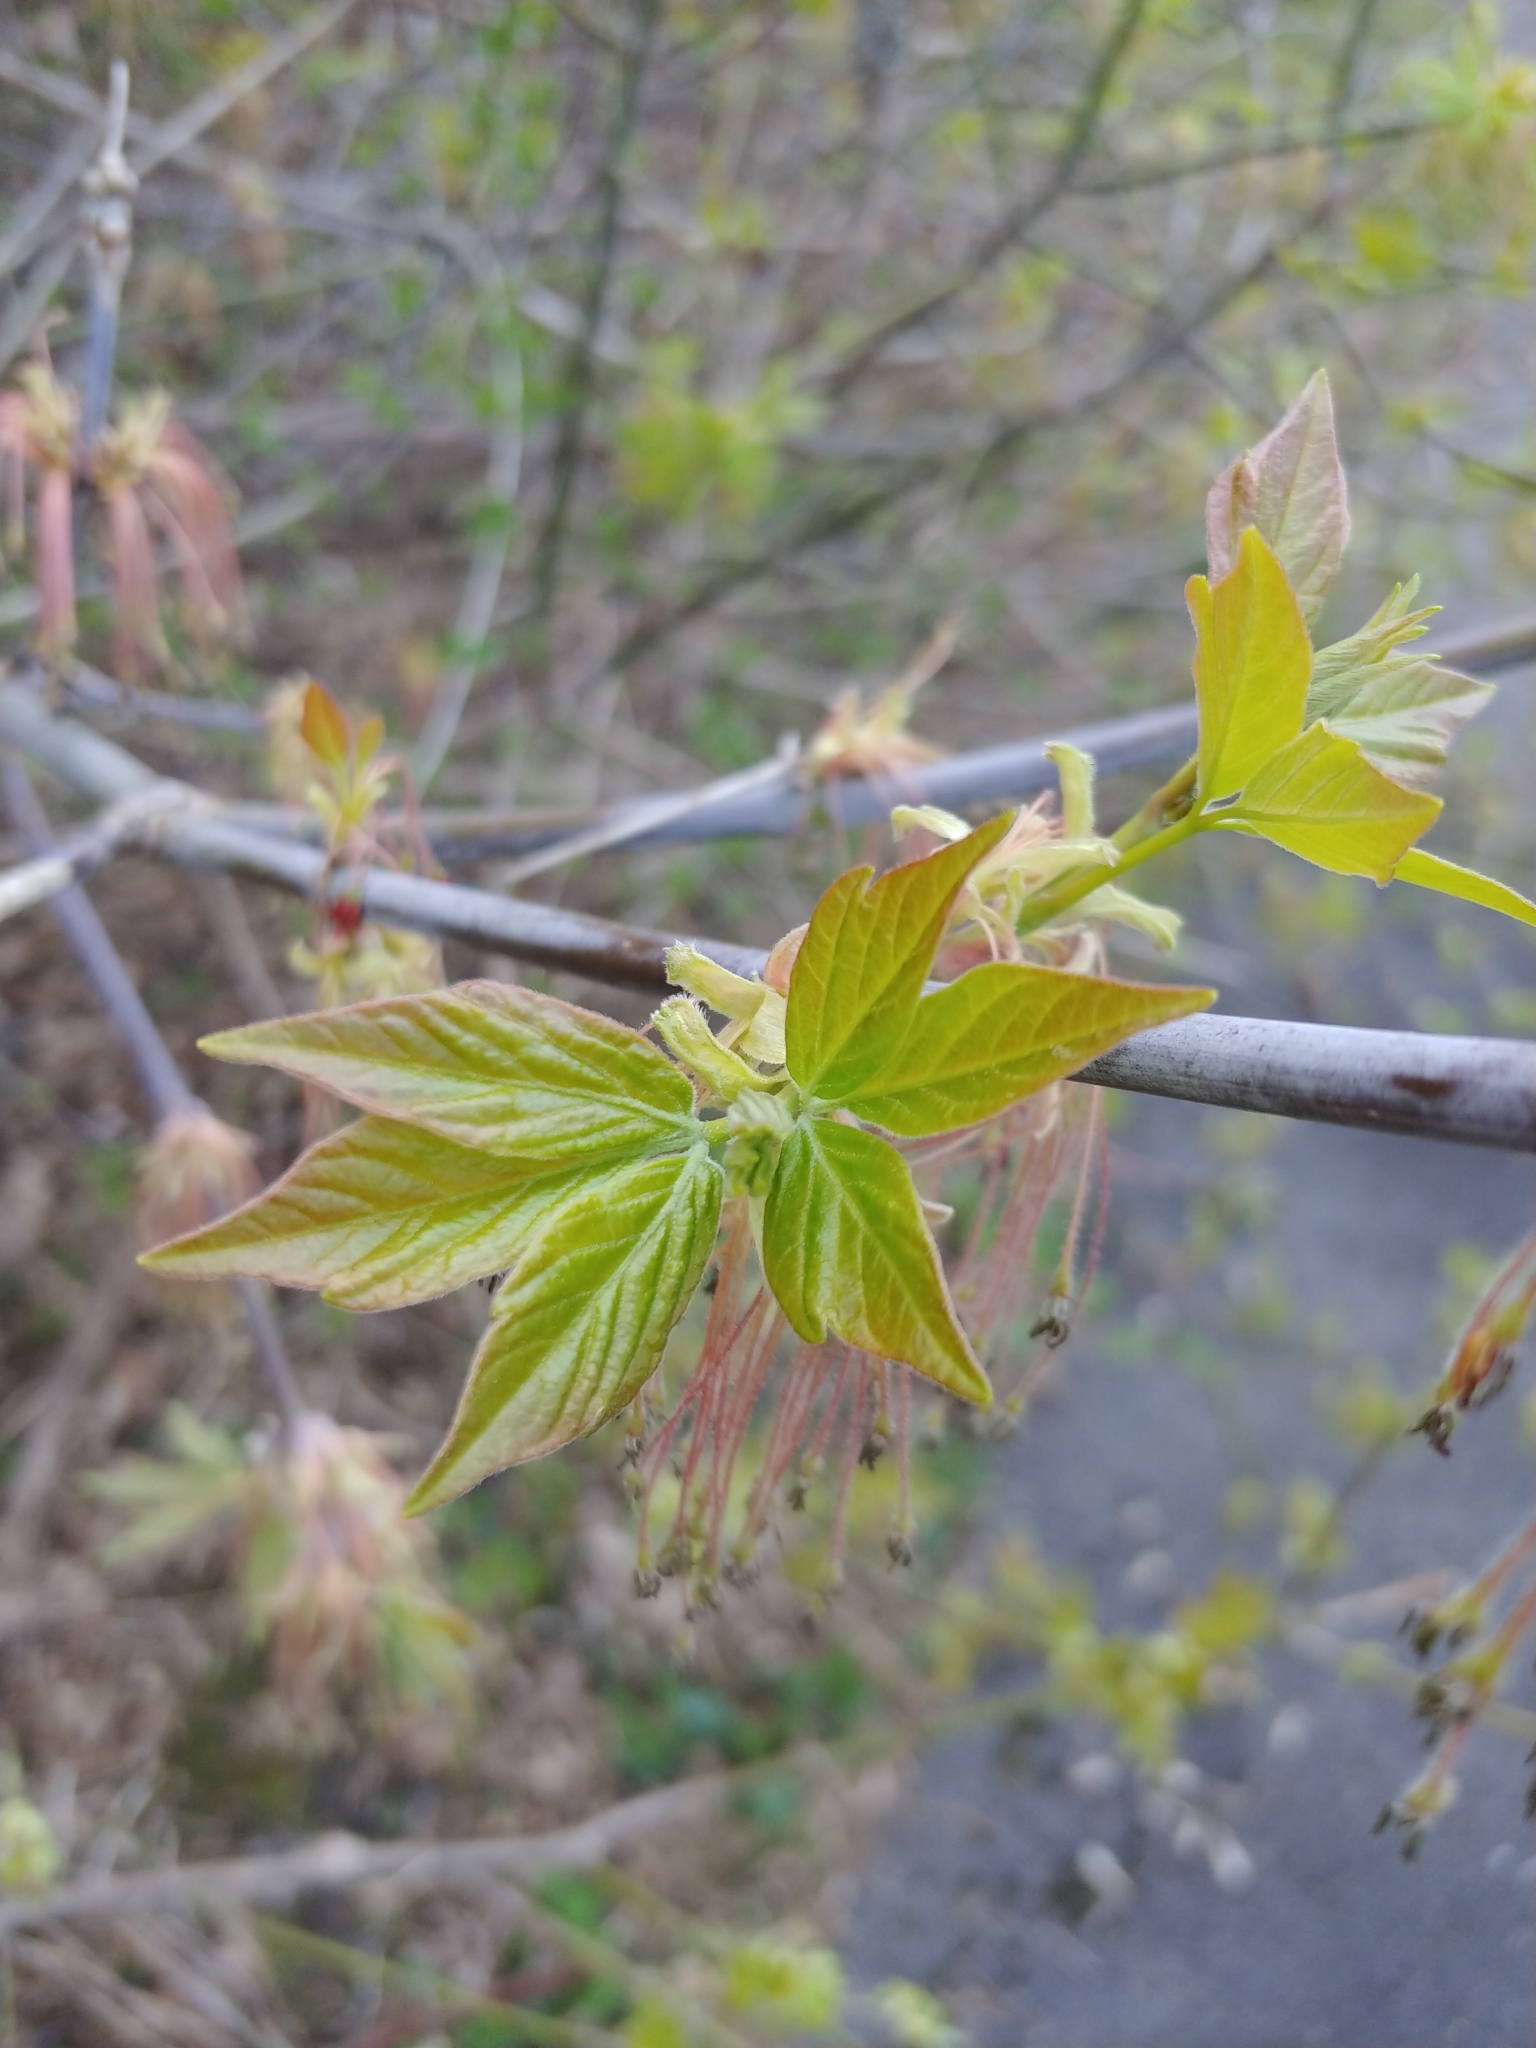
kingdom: Plantae
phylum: Tracheophyta
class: Magnoliopsida
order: Sapindales
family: Sapindaceae
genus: Acer
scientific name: Acer negundo
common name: Ashleaf maple
